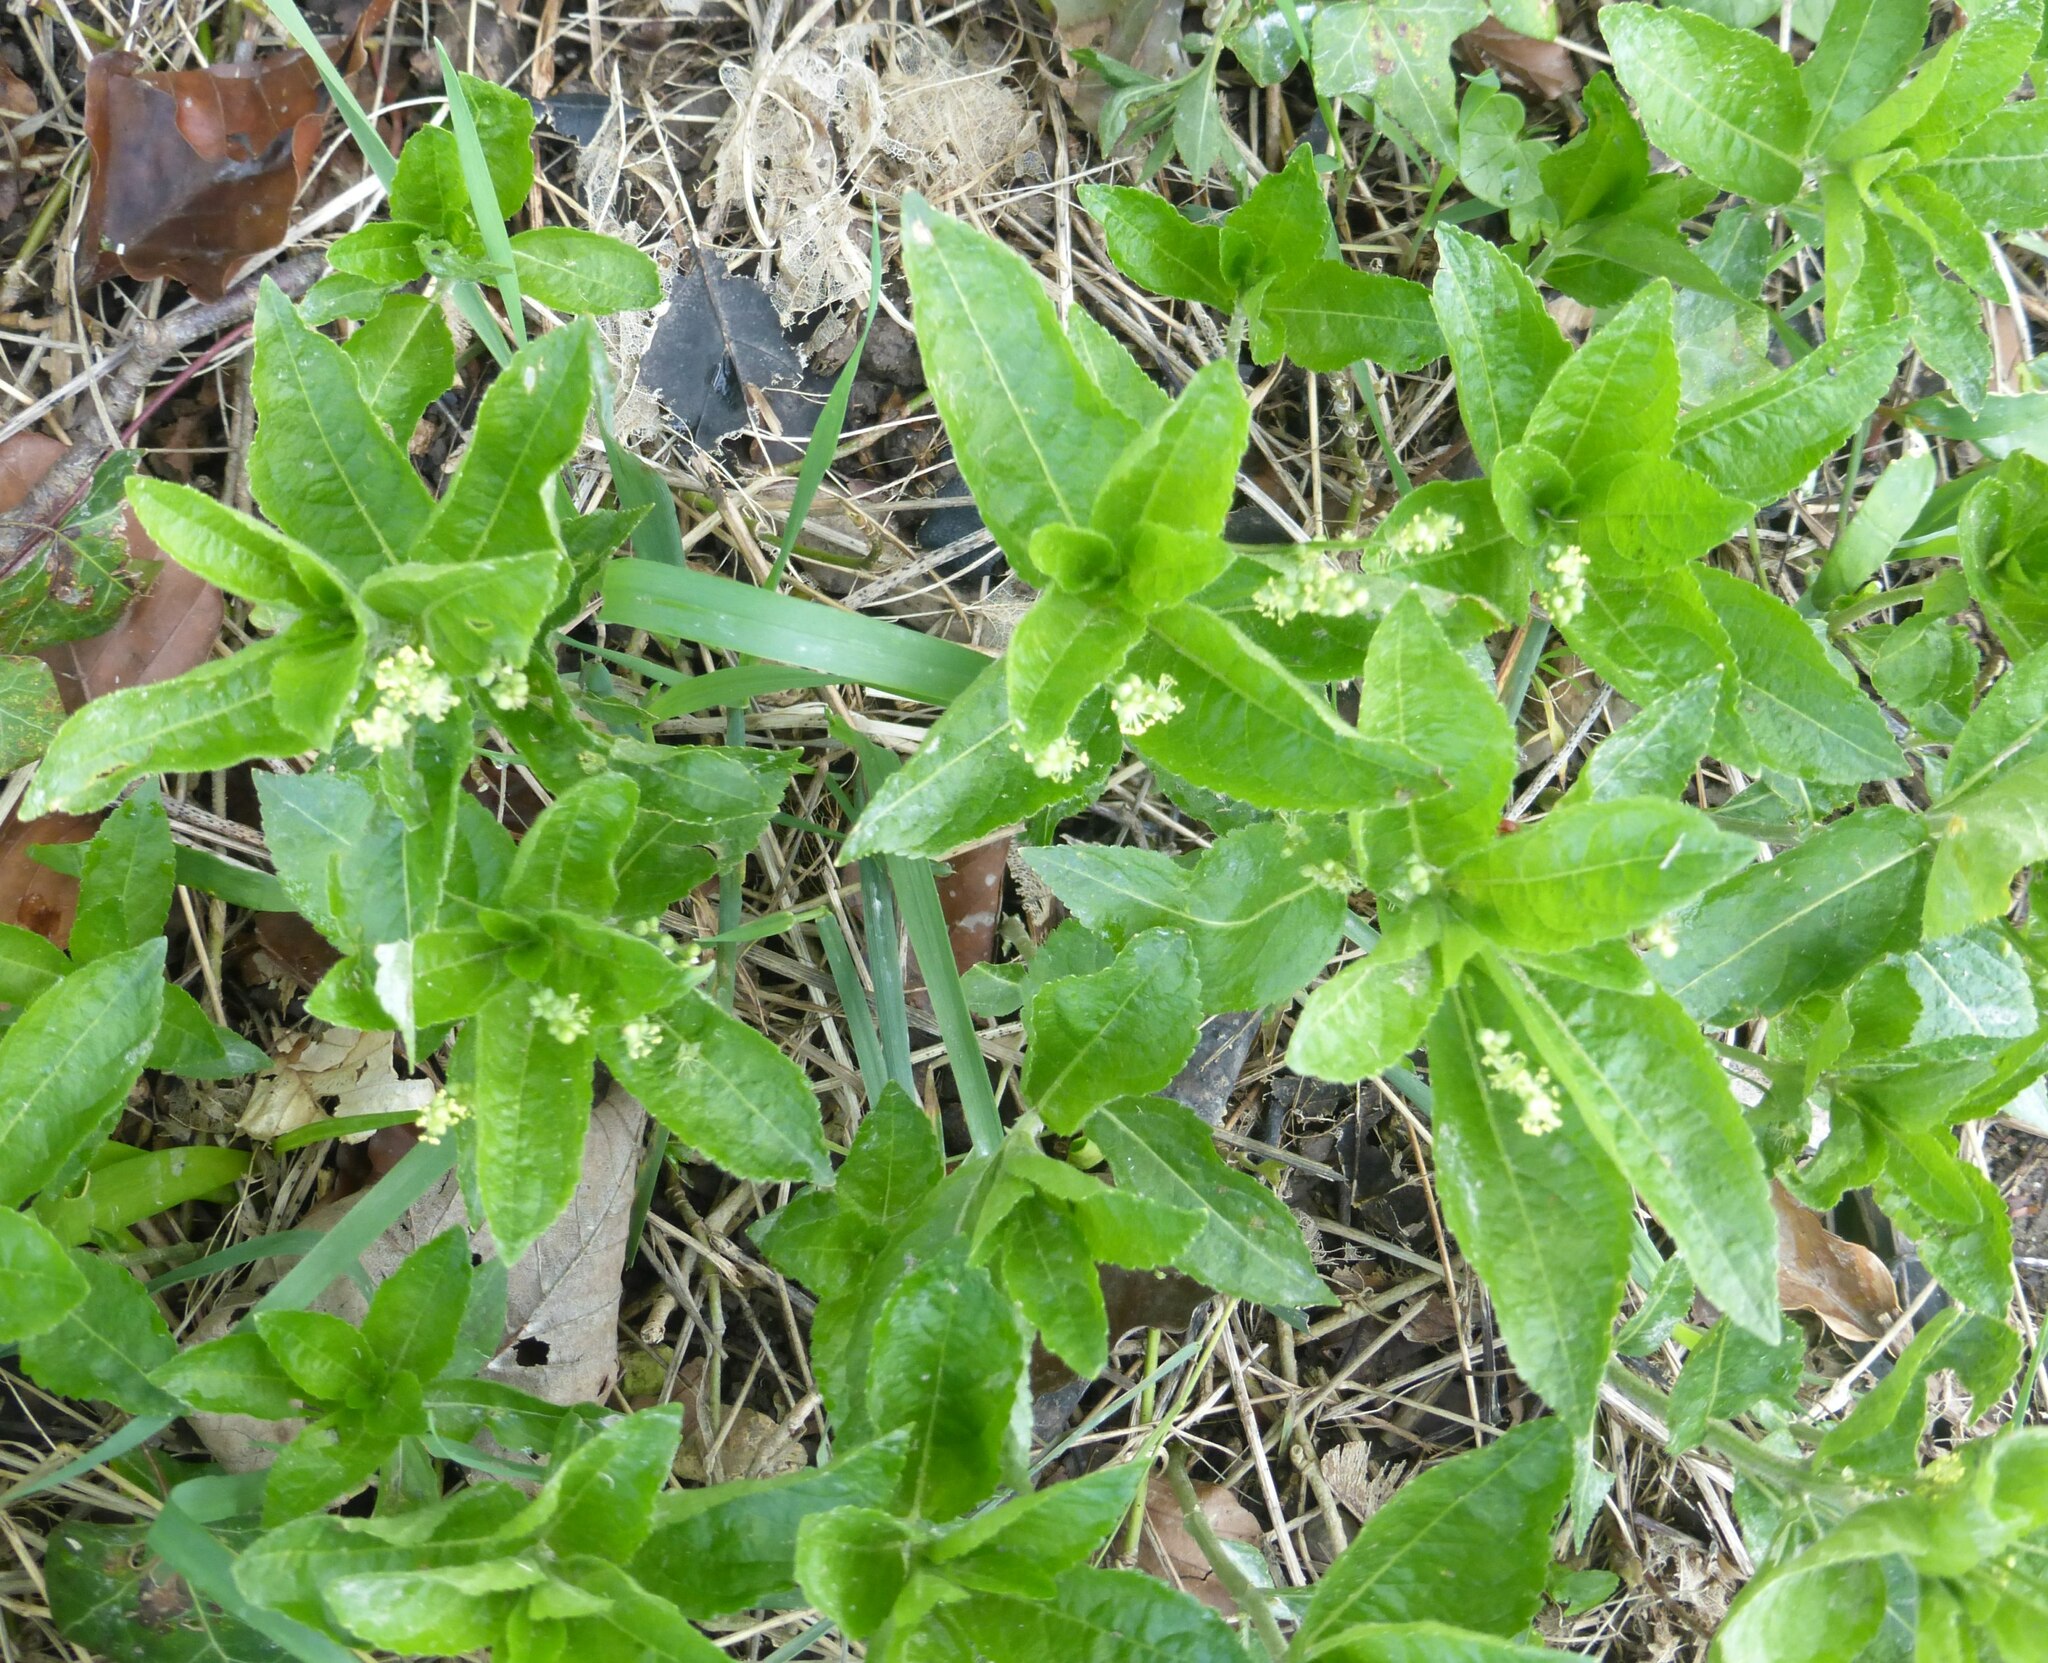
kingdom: Plantae
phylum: Tracheophyta
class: Magnoliopsida
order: Malpighiales
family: Euphorbiaceae
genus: Mercurialis
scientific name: Mercurialis perennis
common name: Dog mercury
